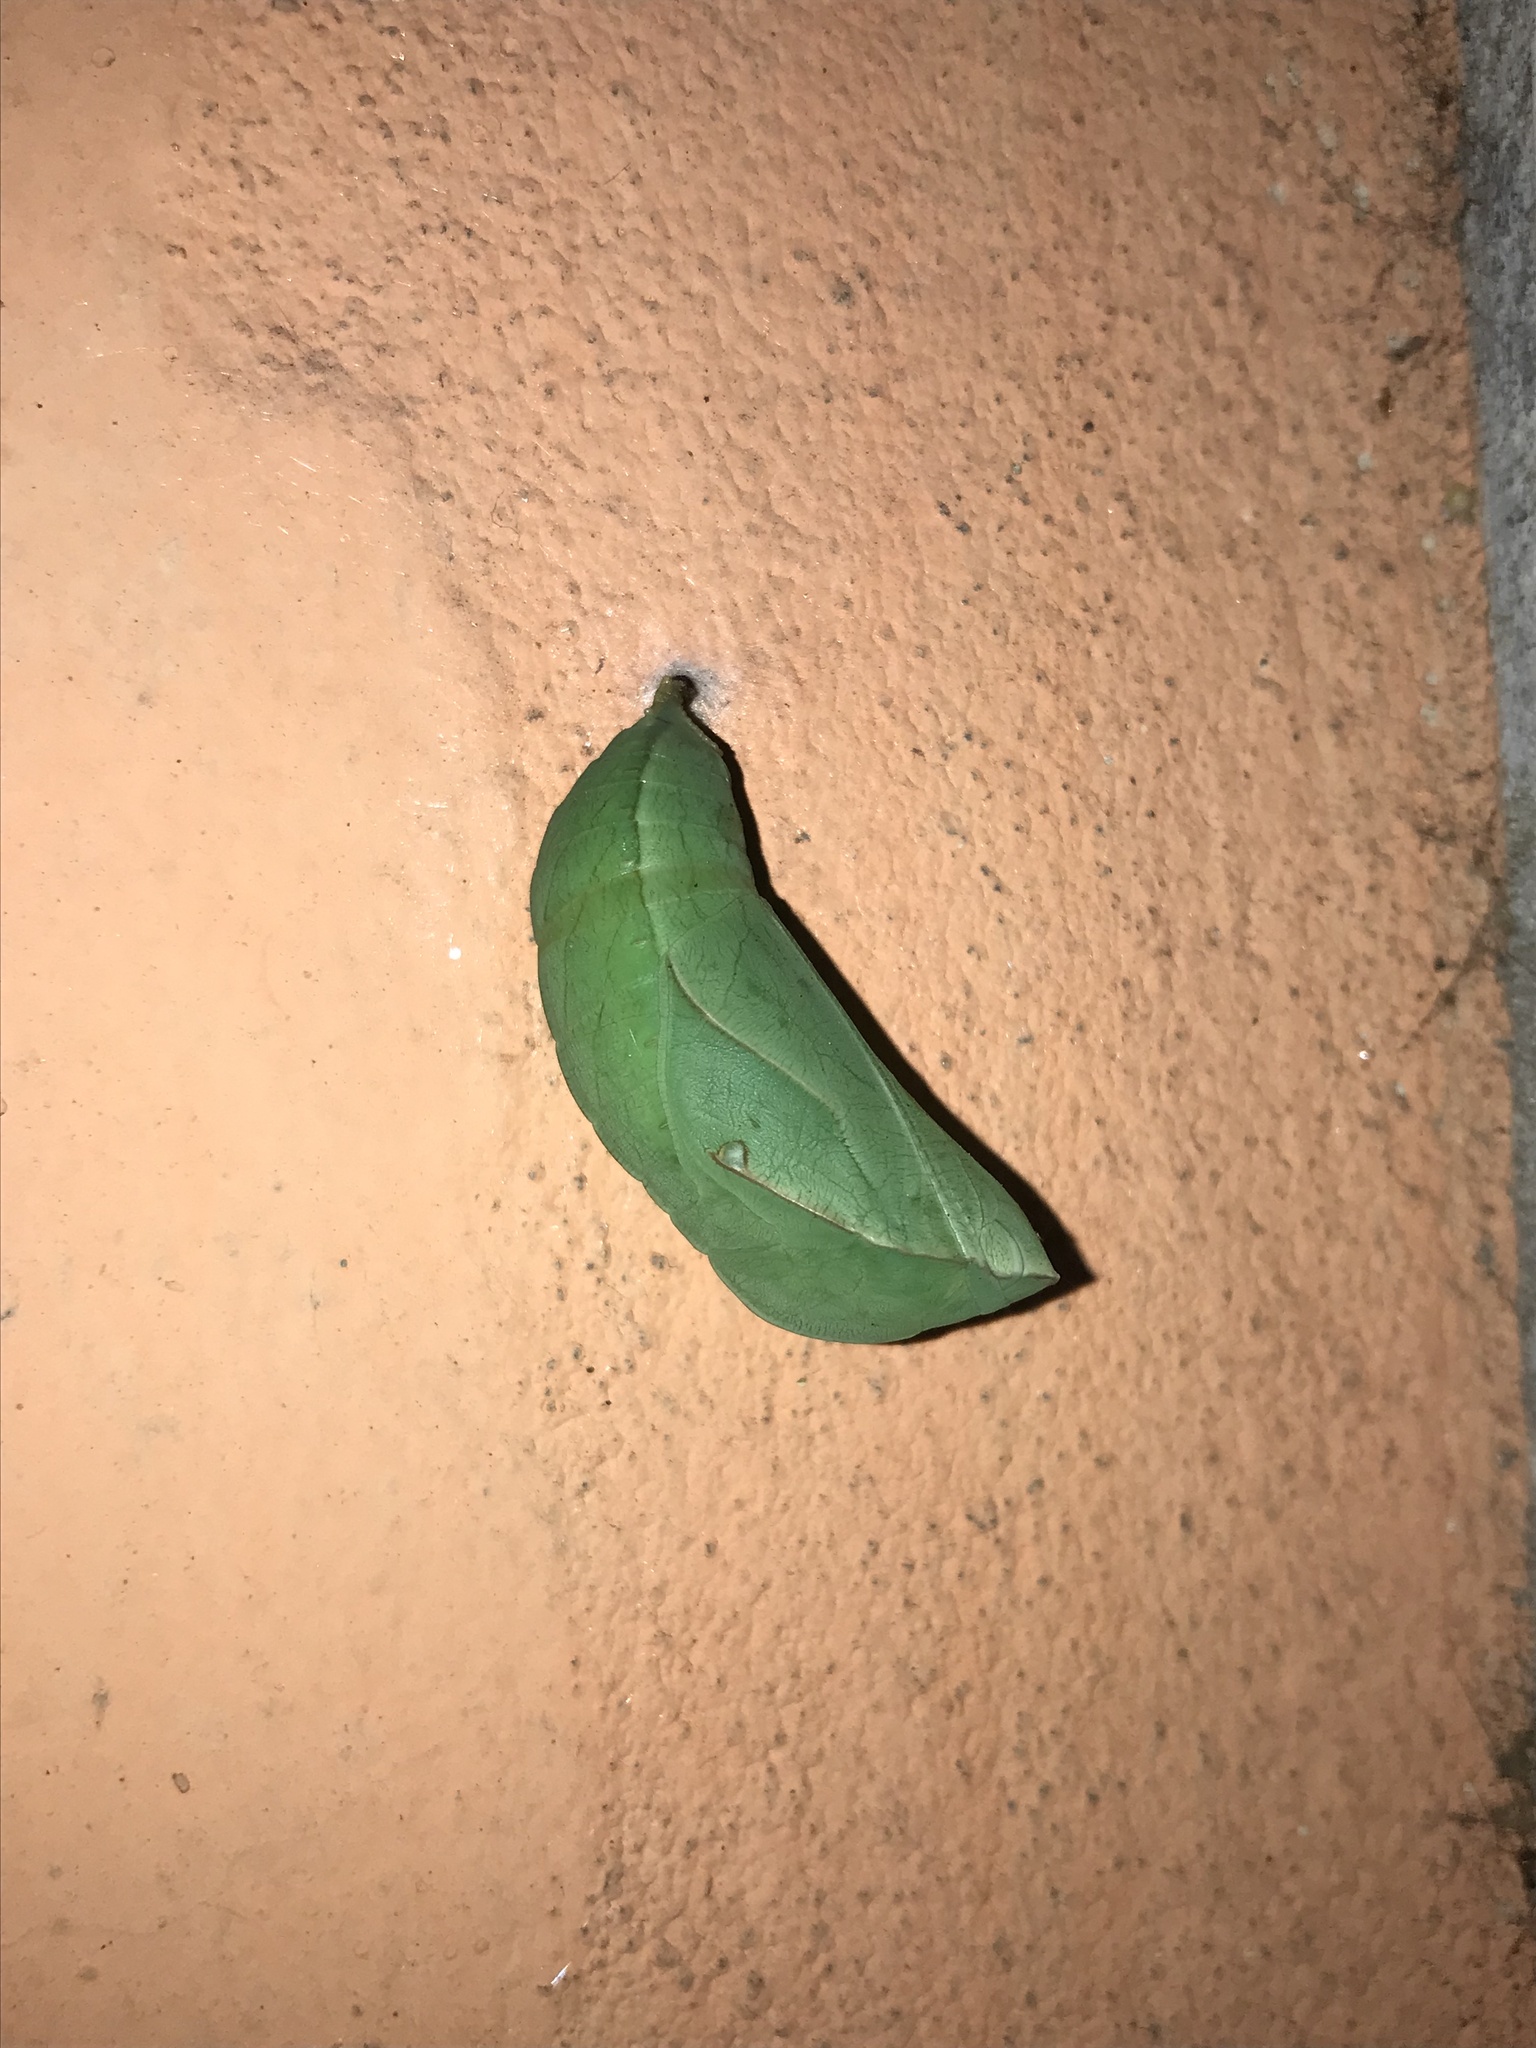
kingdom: Animalia
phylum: Arthropoda
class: Insecta
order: Lepidoptera
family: Nymphalidae
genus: Opsiphanes
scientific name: Opsiphanes invirae
